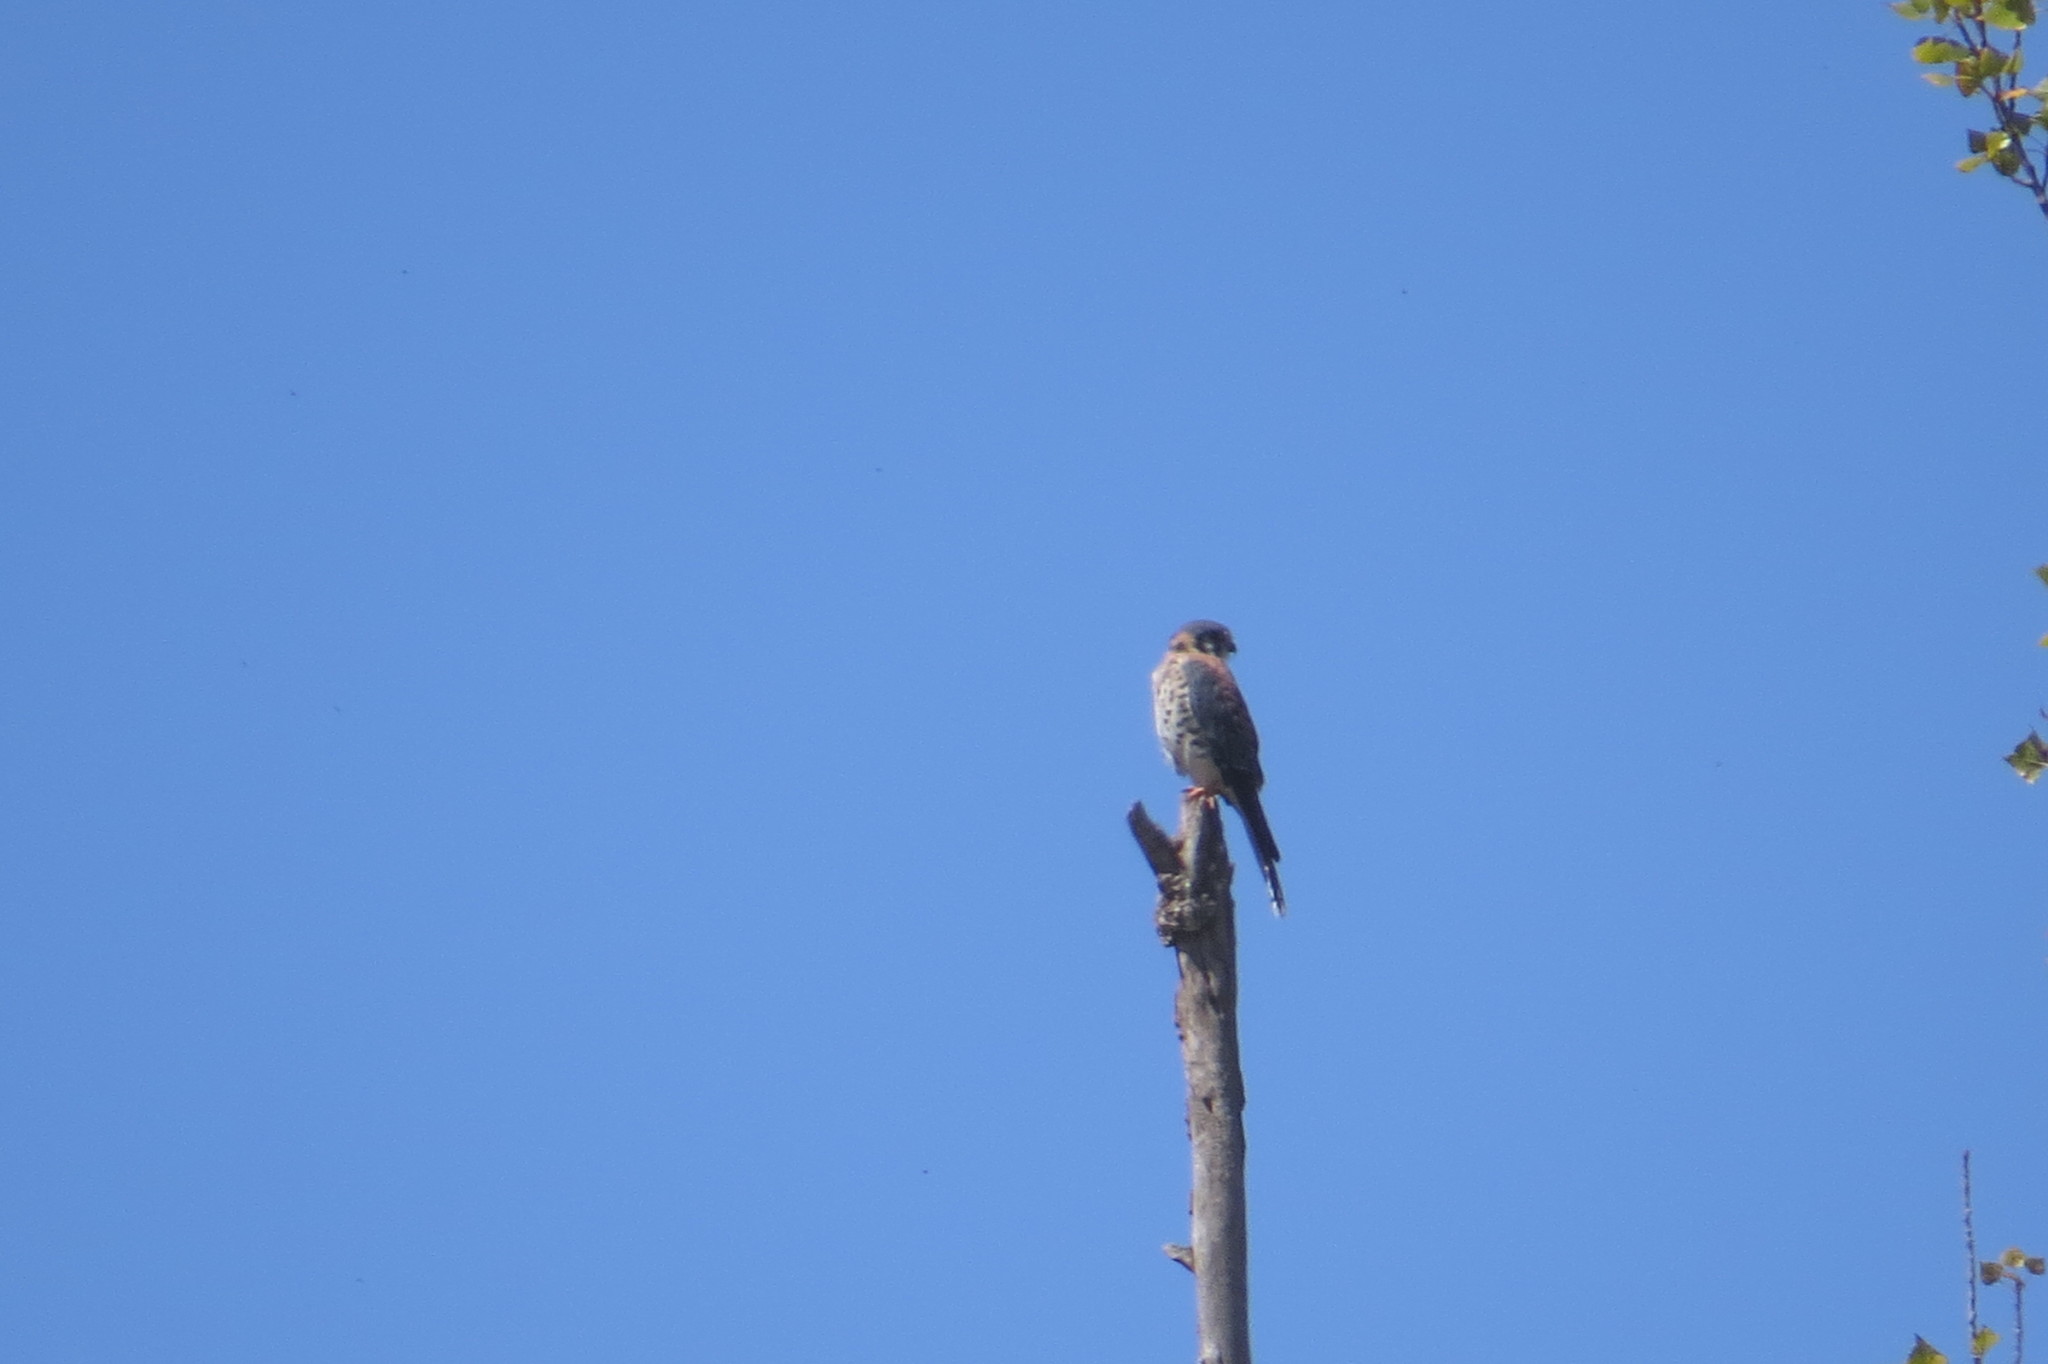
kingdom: Animalia
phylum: Chordata
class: Aves
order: Falconiformes
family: Falconidae
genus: Falco
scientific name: Falco sparverius
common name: American kestrel
